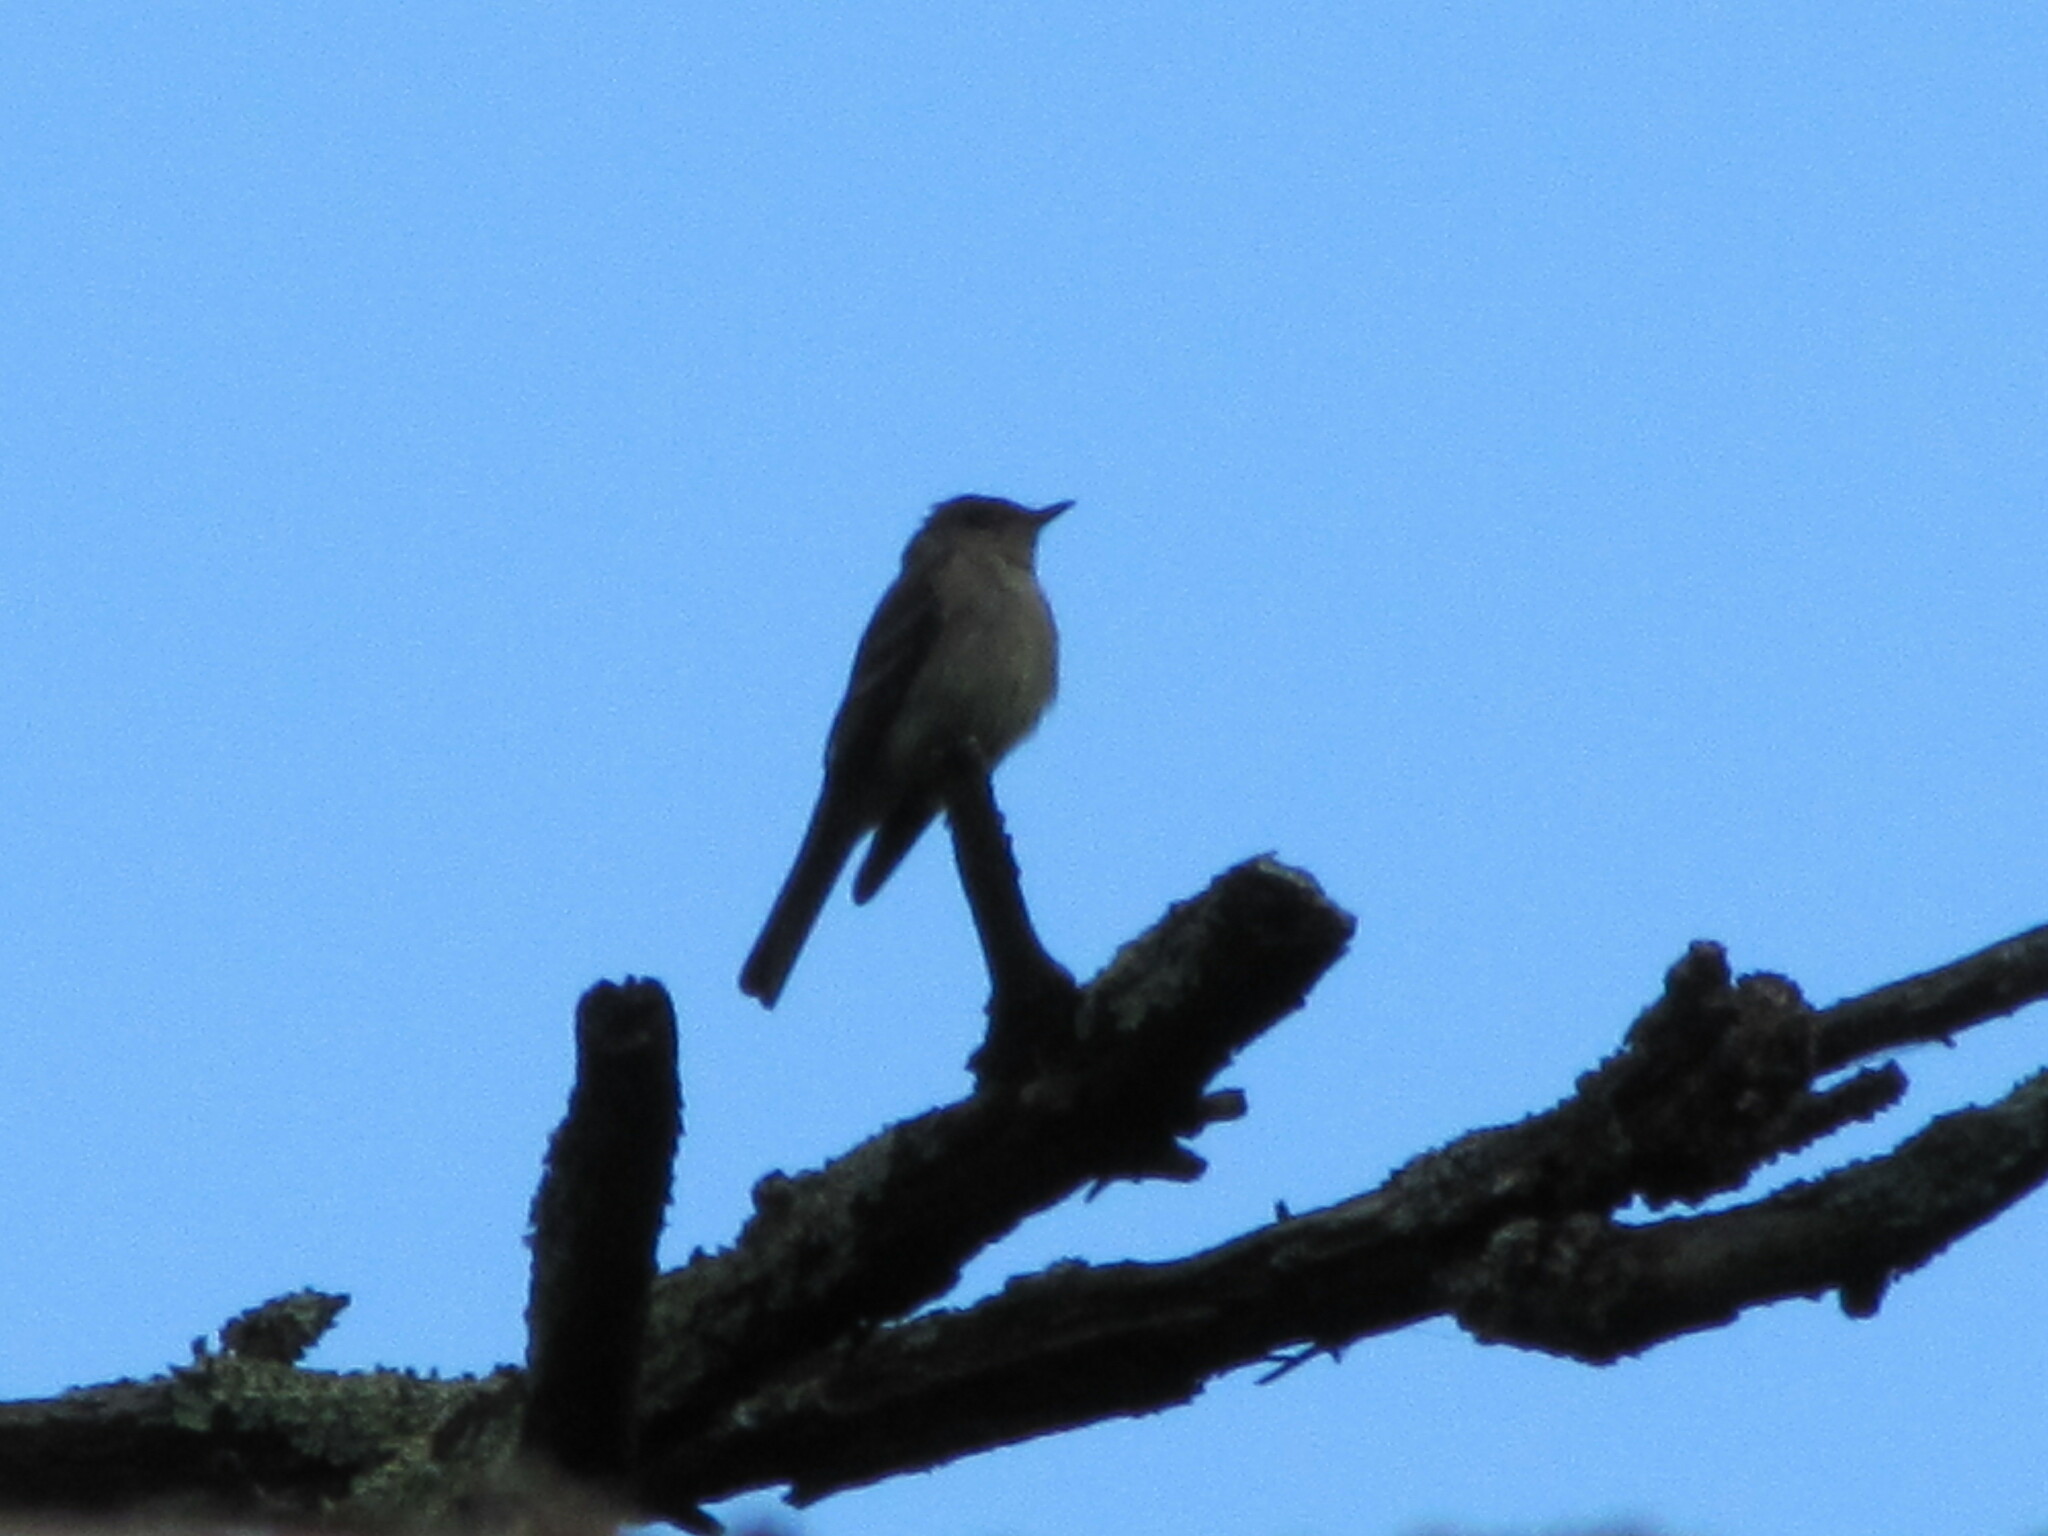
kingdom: Animalia
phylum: Chordata
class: Aves
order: Passeriformes
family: Tyrannidae
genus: Contopus
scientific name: Contopus virens
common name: Eastern wood-pewee
